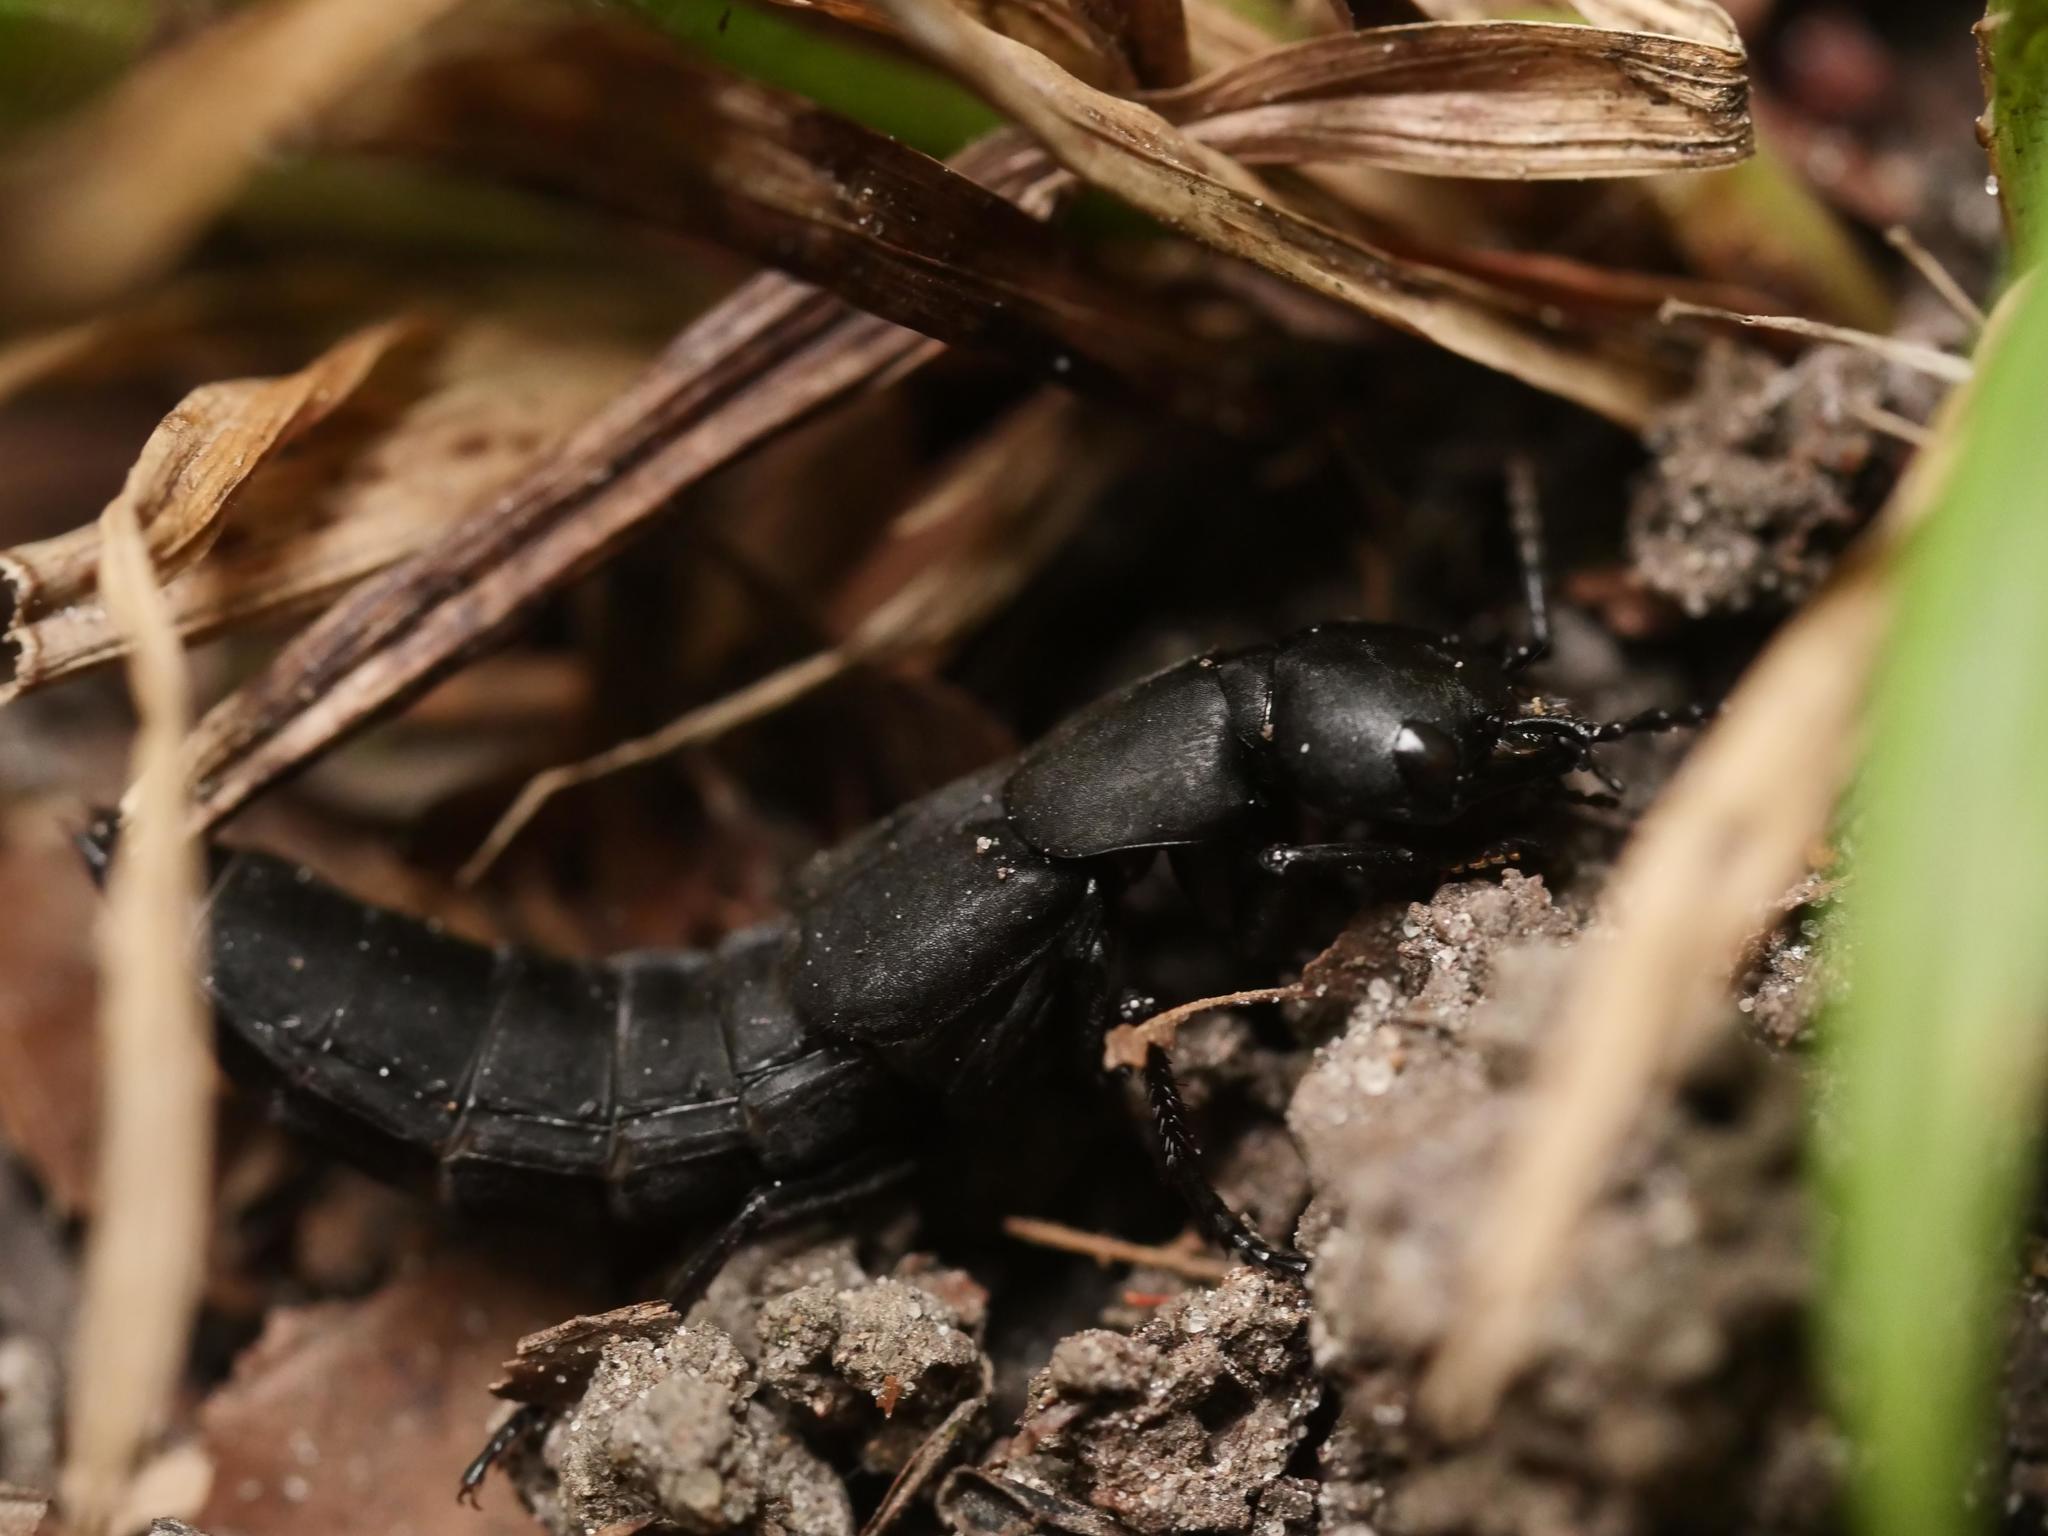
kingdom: Animalia
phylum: Arthropoda
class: Insecta
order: Coleoptera
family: Staphylinidae
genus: Ocypus
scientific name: Ocypus olens
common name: Devil's coach-horse
